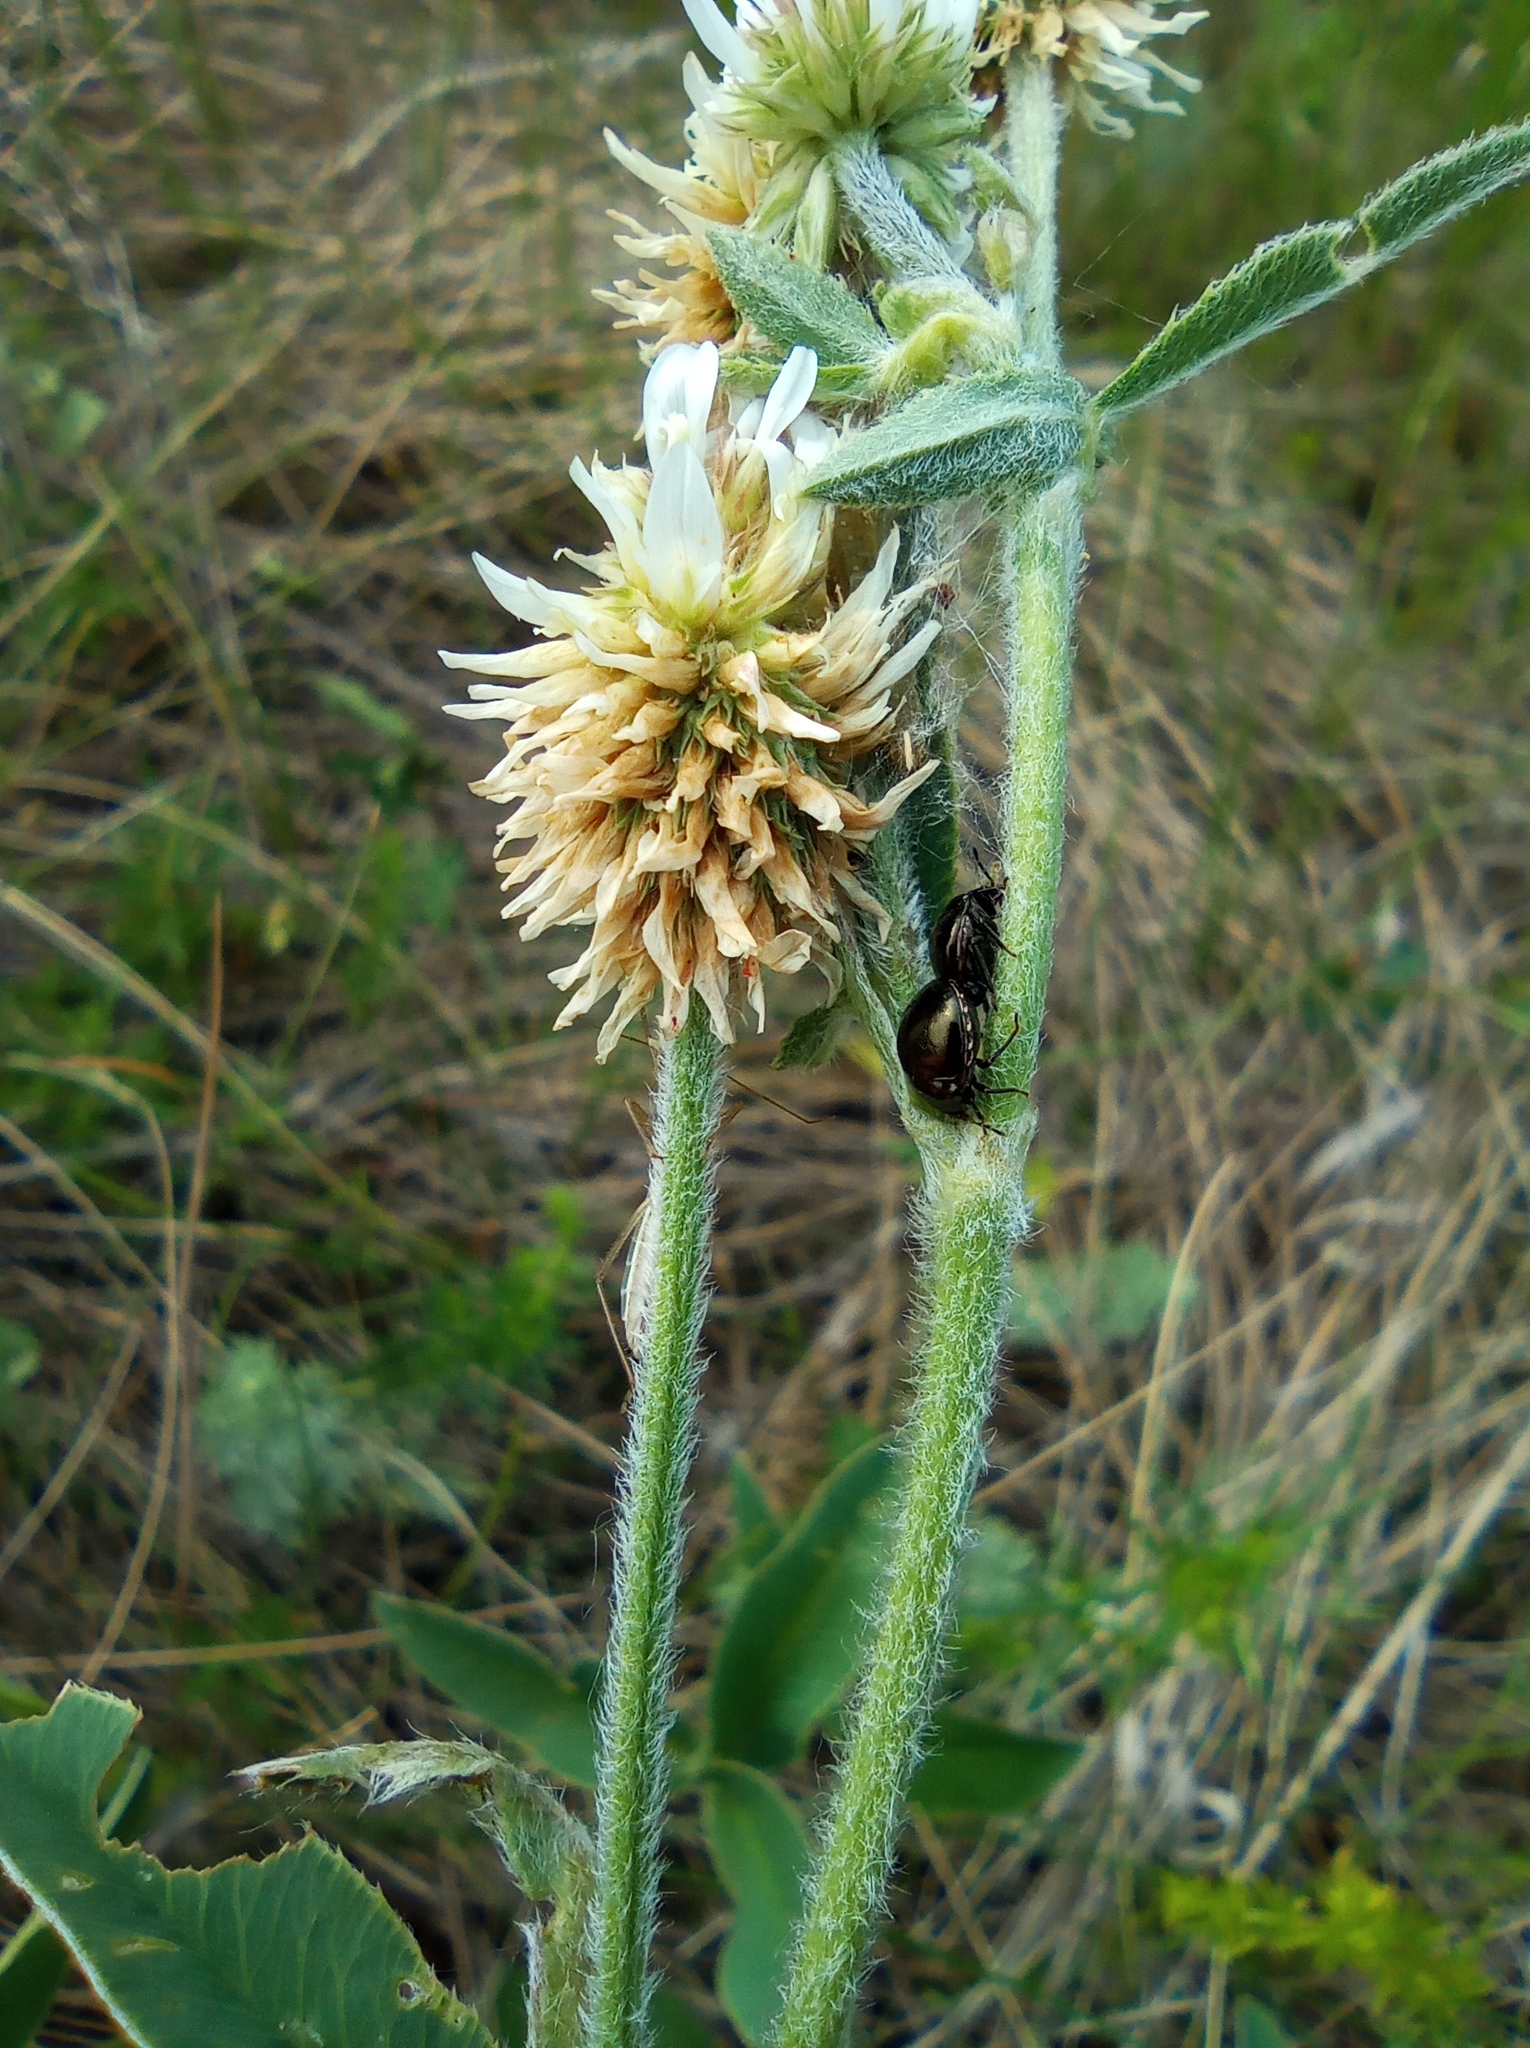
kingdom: Animalia
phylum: Arthropoda
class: Insecta
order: Hemiptera
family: Plataspidae
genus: Coptosoma
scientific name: Coptosoma scutellatum
